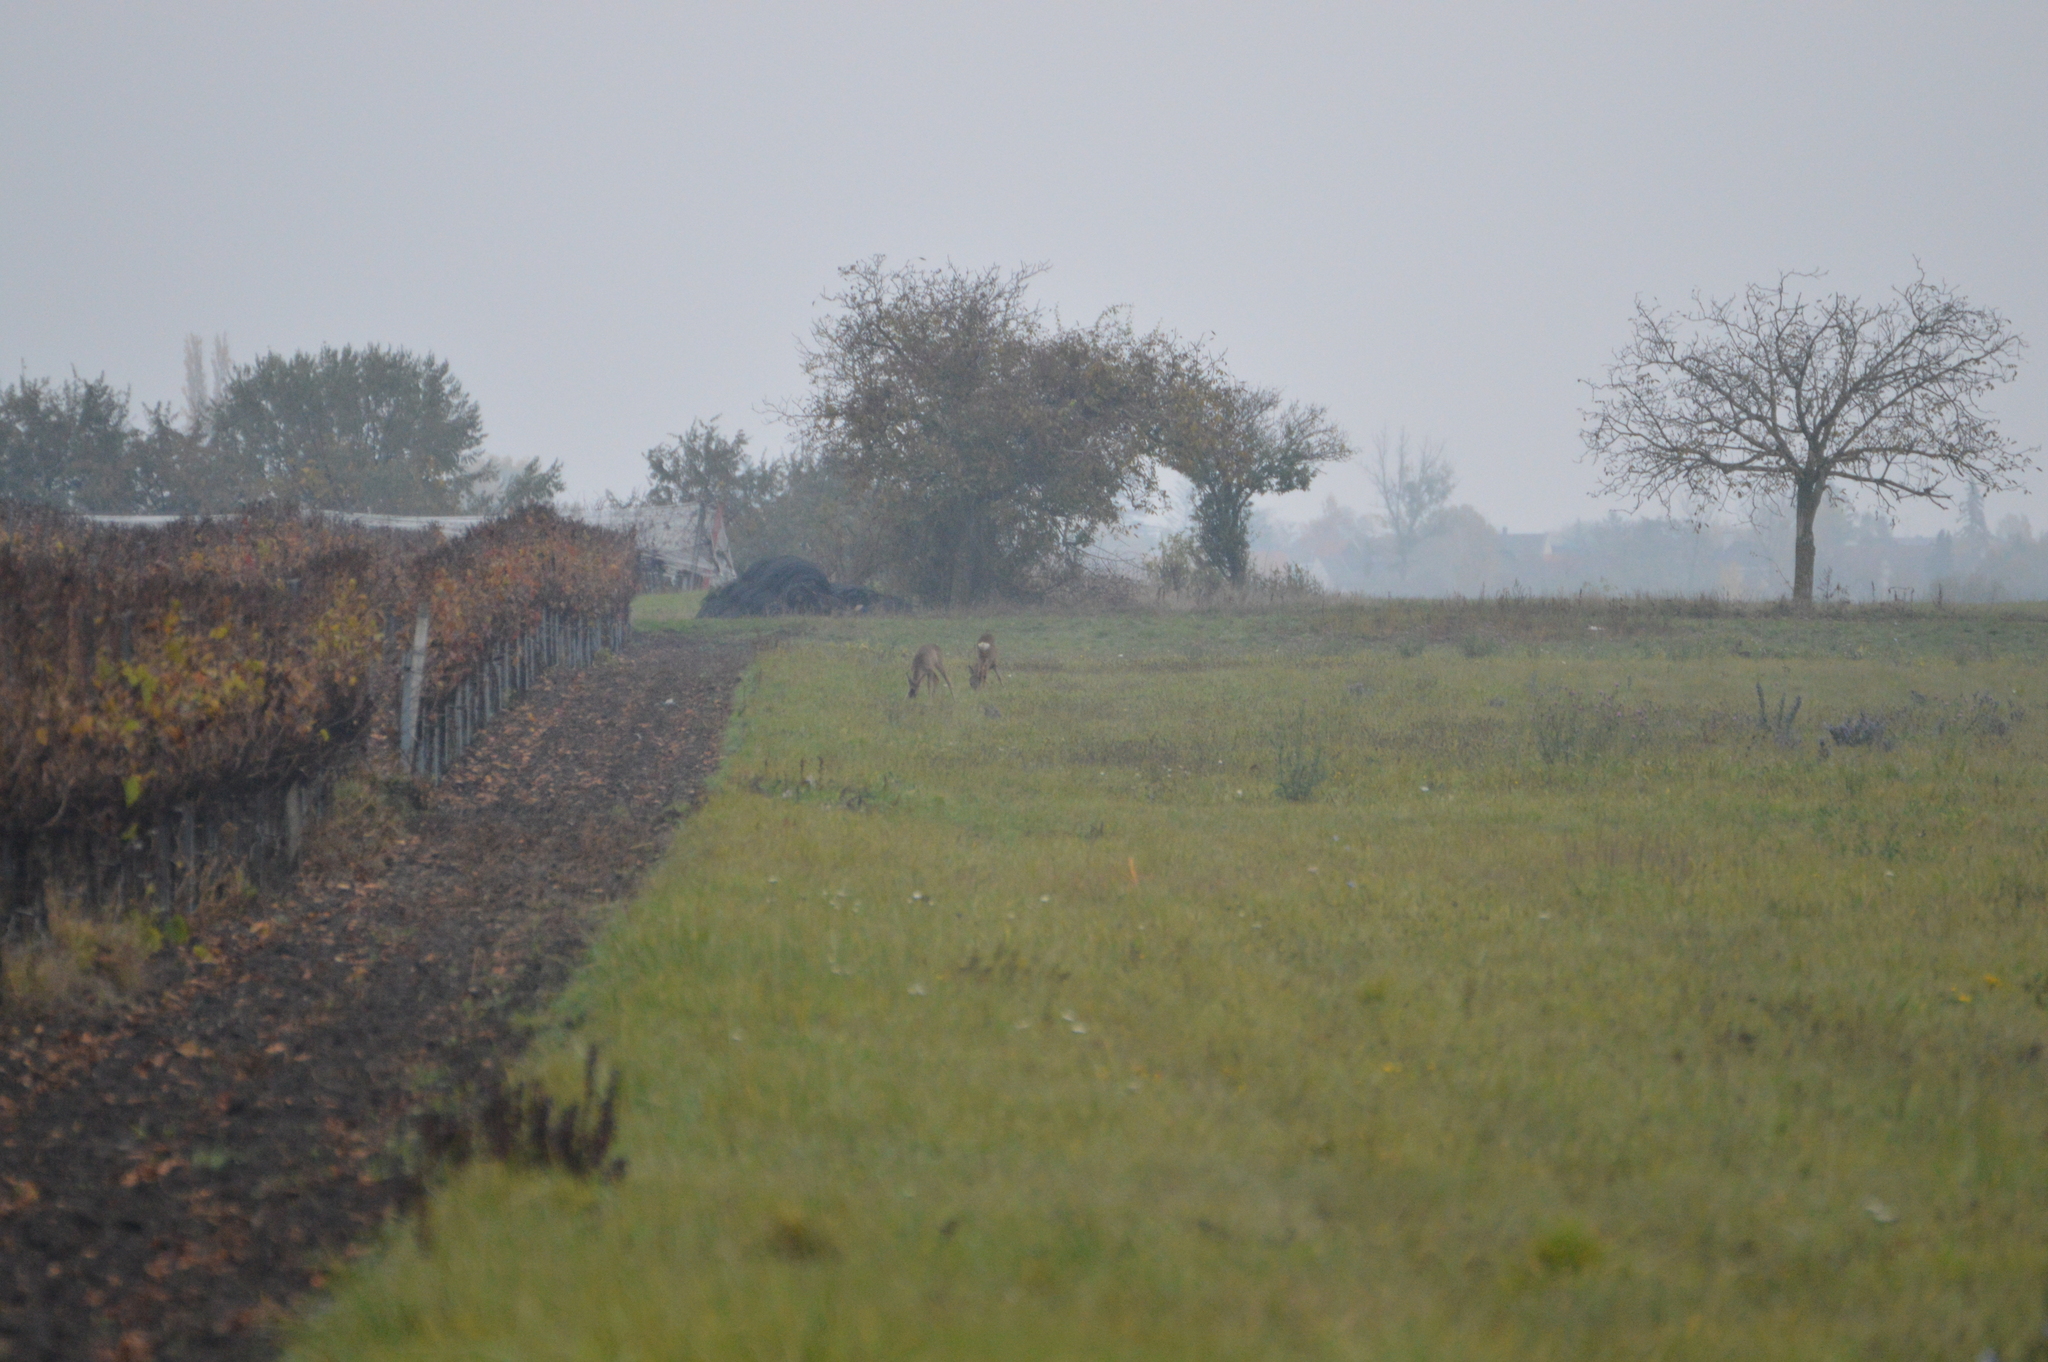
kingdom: Animalia
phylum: Chordata
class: Mammalia
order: Artiodactyla
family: Cervidae
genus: Capreolus
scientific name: Capreolus capreolus
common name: Western roe deer
